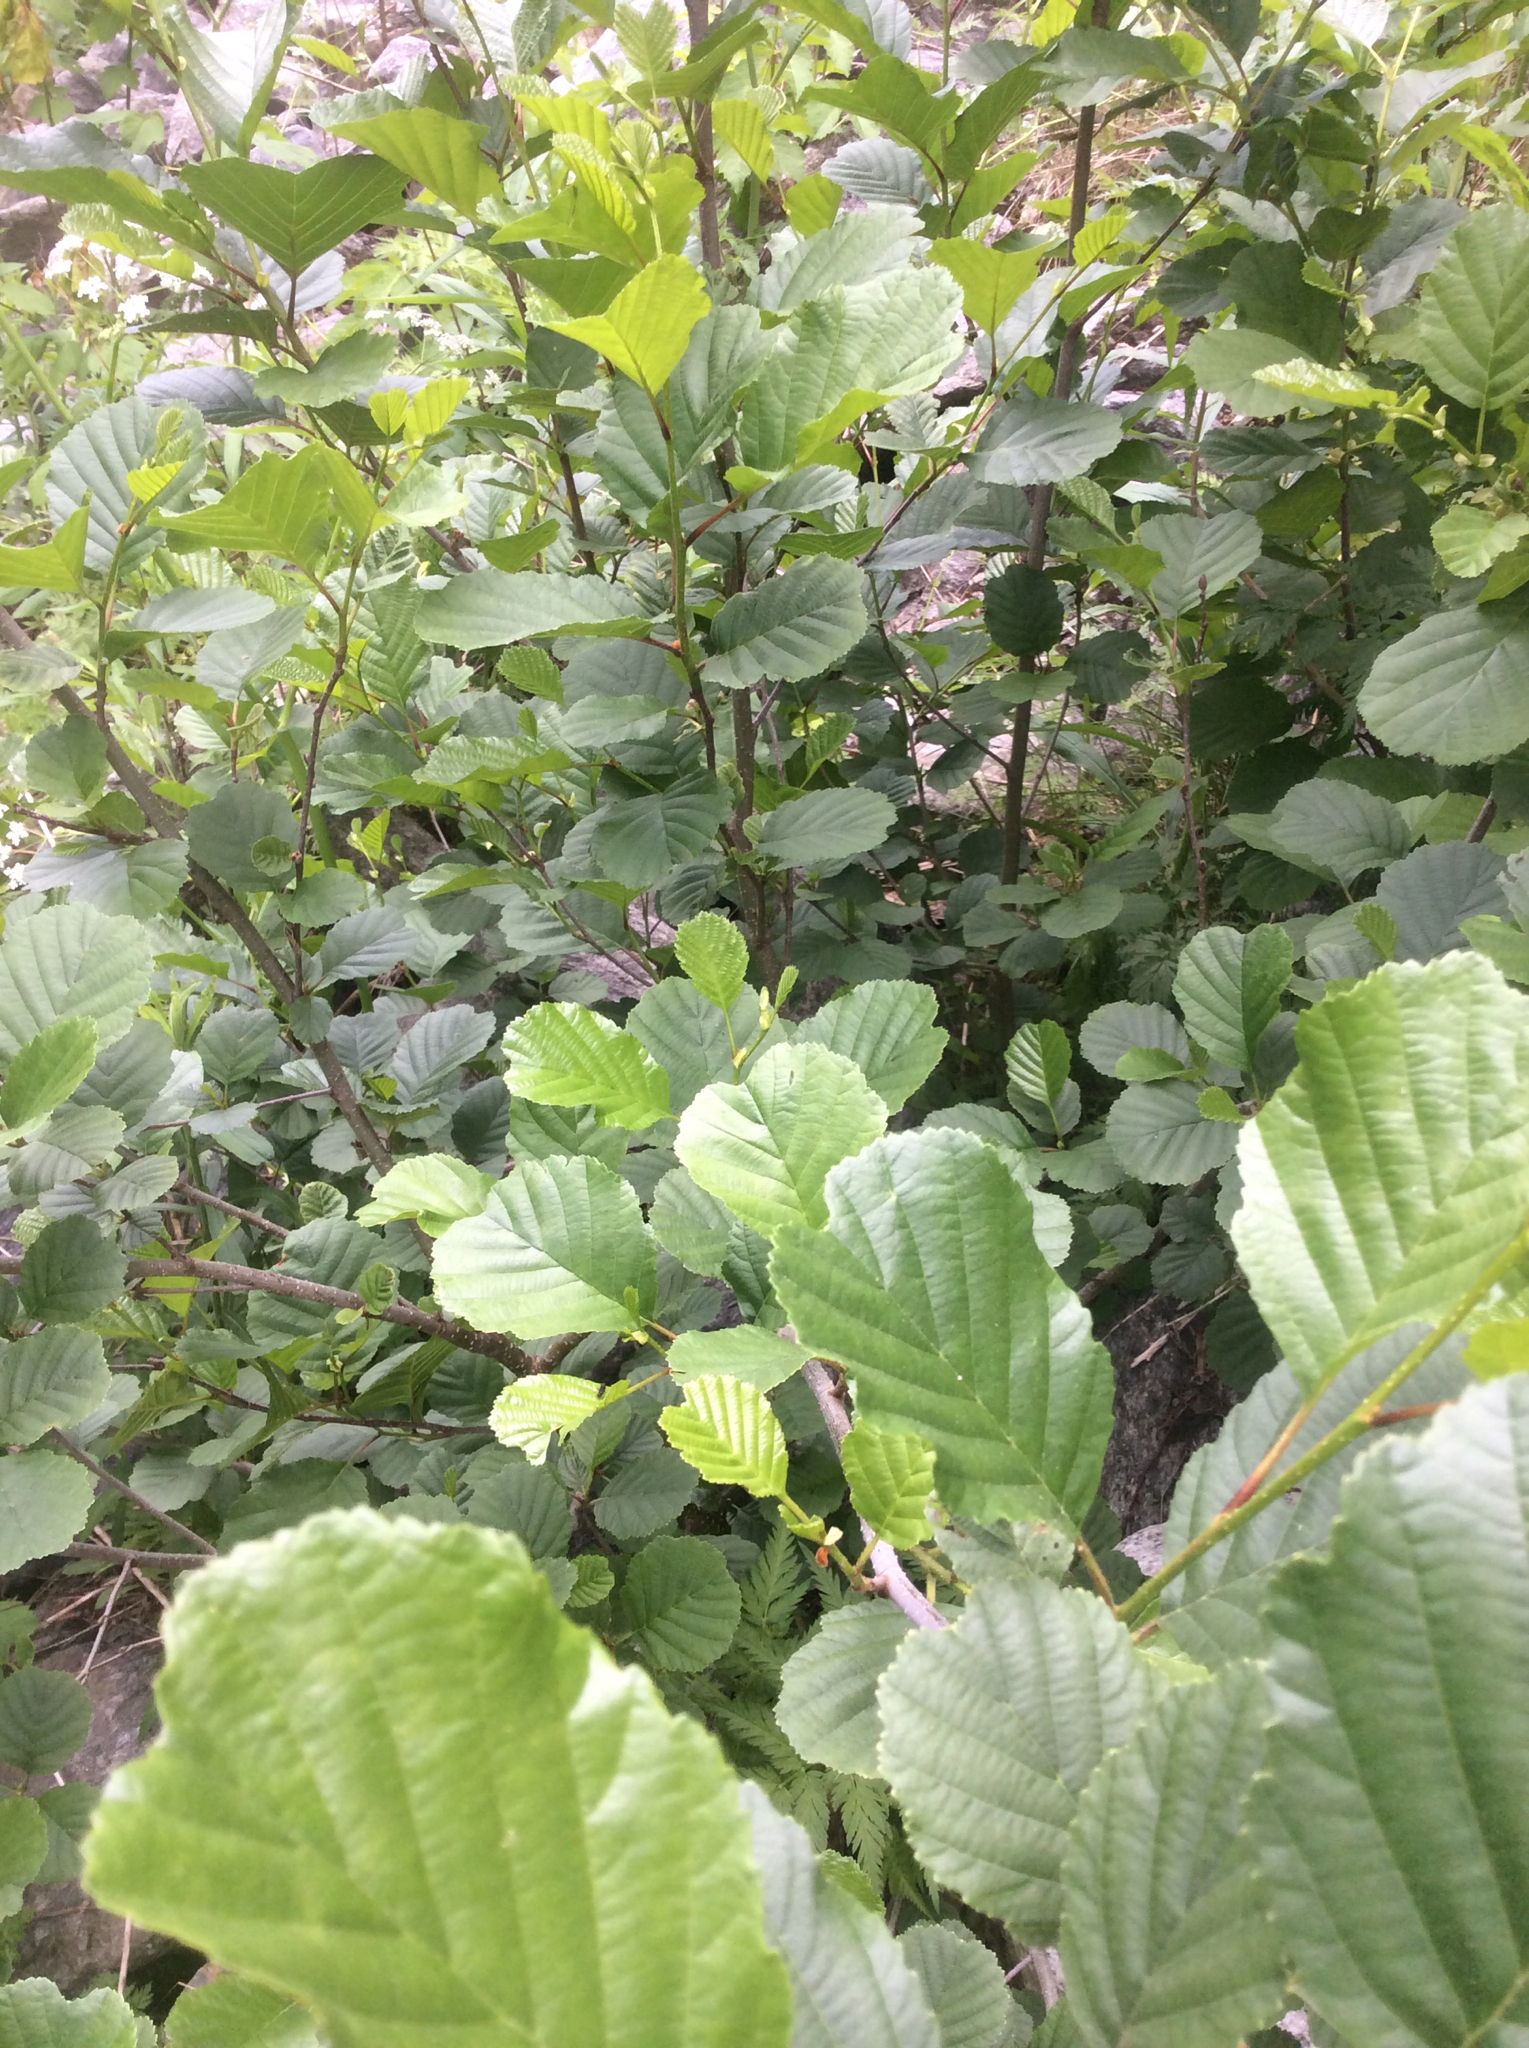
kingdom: Plantae
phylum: Tracheophyta
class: Magnoliopsida
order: Fagales
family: Betulaceae
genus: Alnus
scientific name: Alnus glutinosa
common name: Black alder
